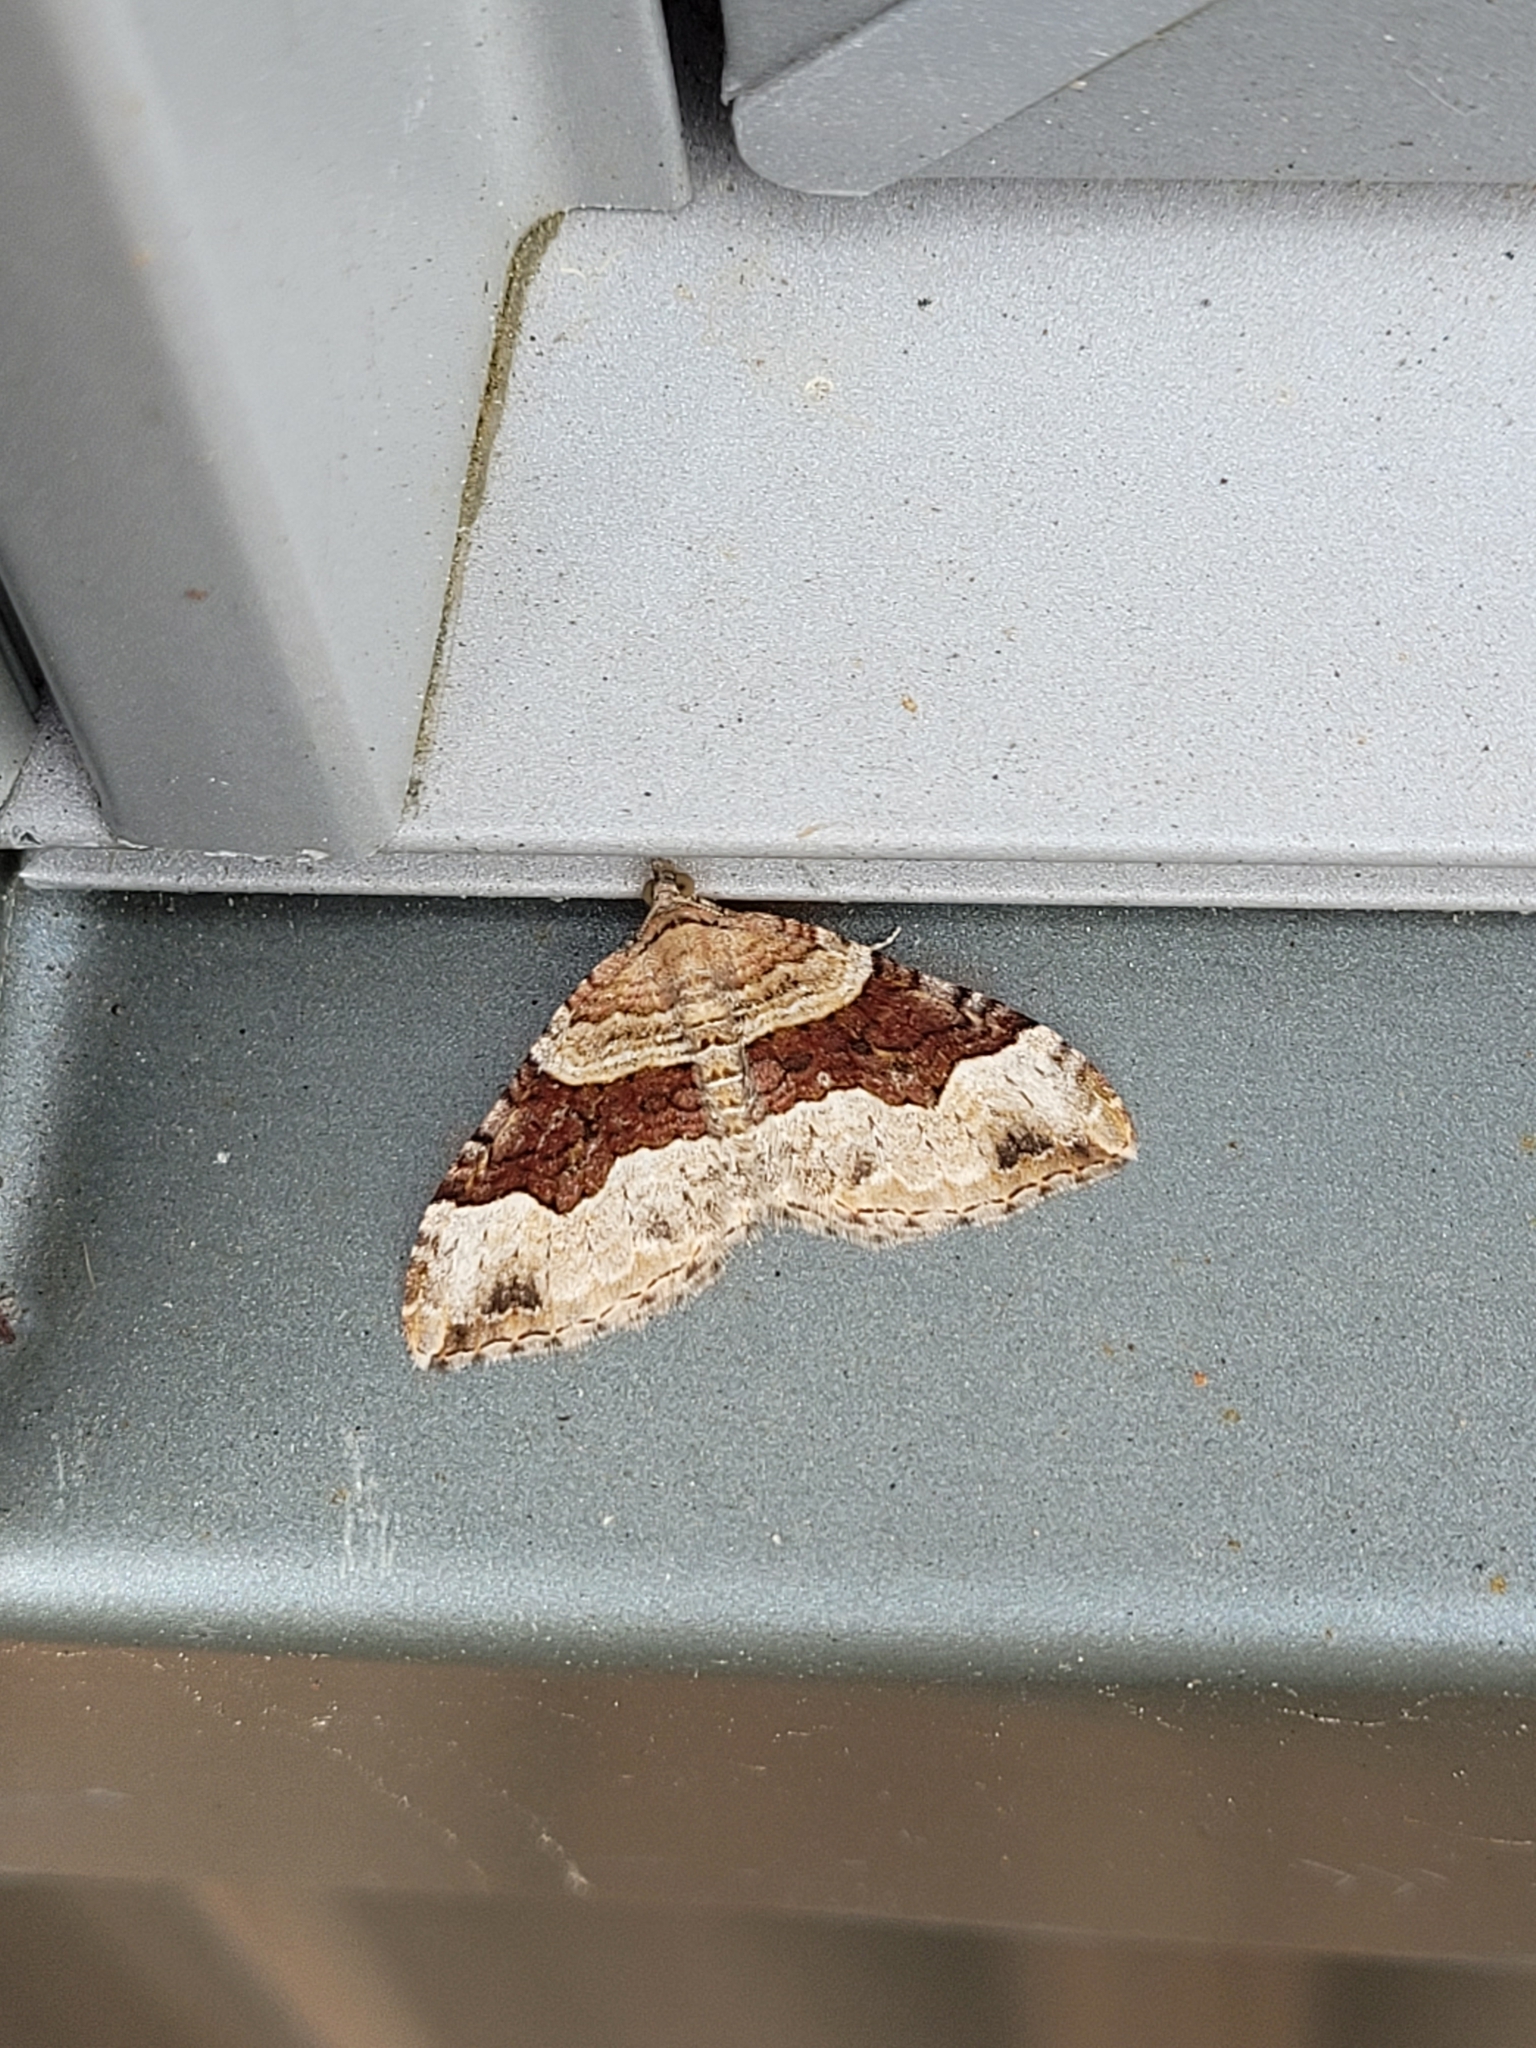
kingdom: Animalia
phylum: Arthropoda
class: Insecta
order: Lepidoptera
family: Geometridae
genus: Xanthorhoe
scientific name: Xanthorhoe defensaria
